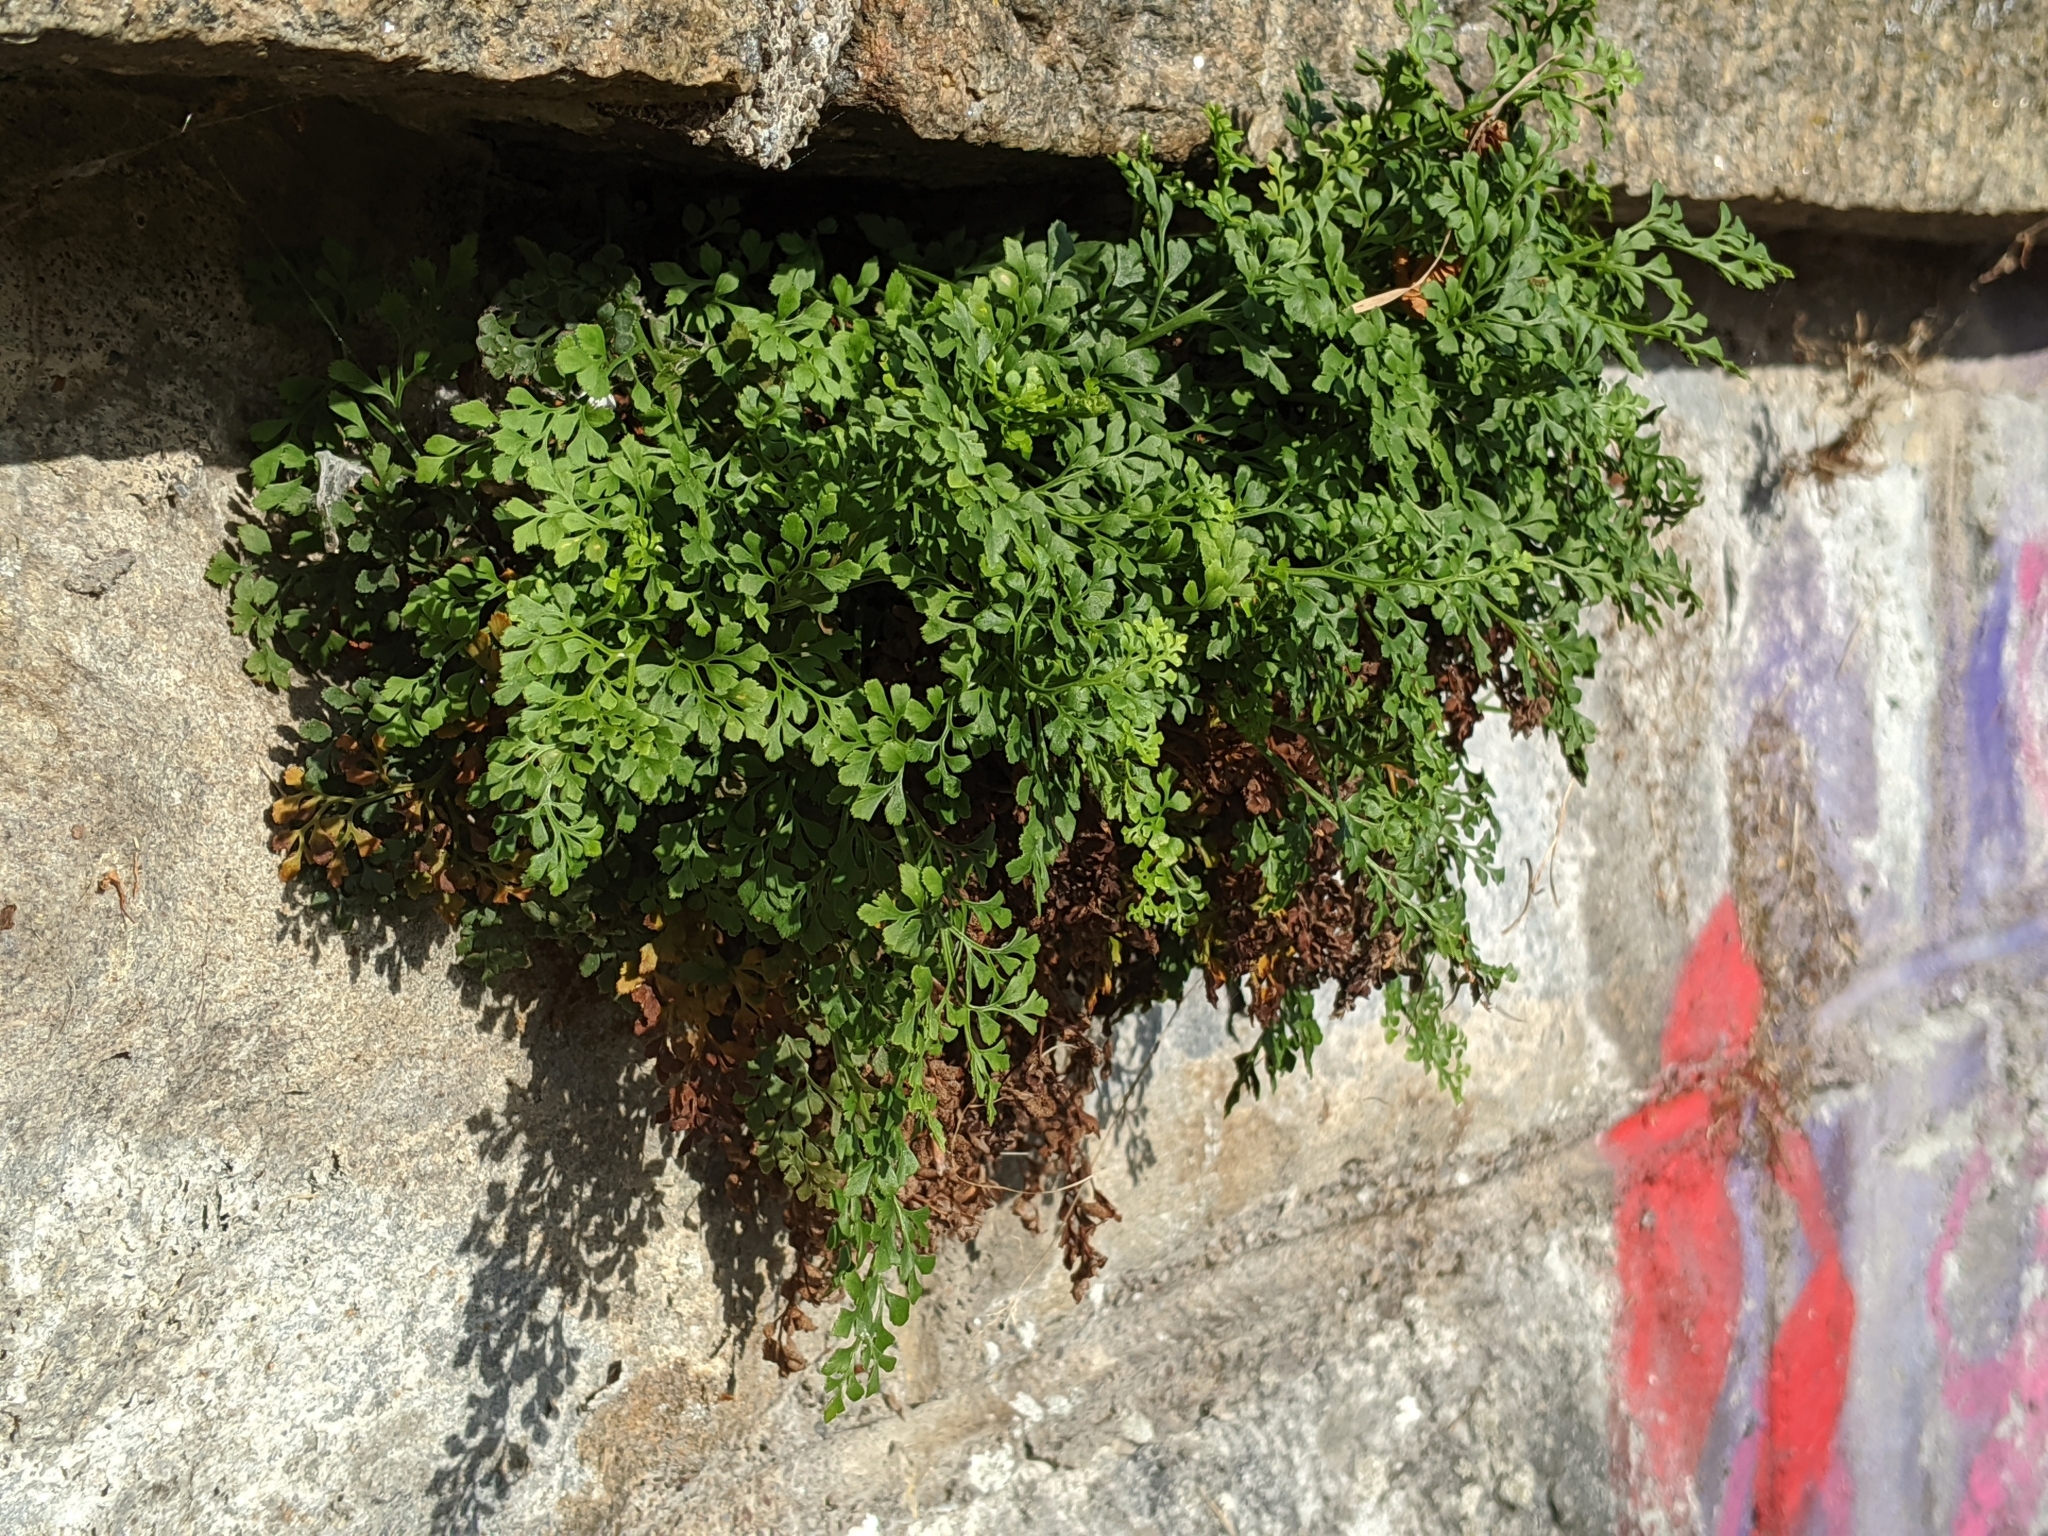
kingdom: Plantae
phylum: Tracheophyta
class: Polypodiopsida
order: Polypodiales
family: Aspleniaceae
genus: Asplenium
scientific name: Asplenium ruta-muraria
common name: Wall-rue
